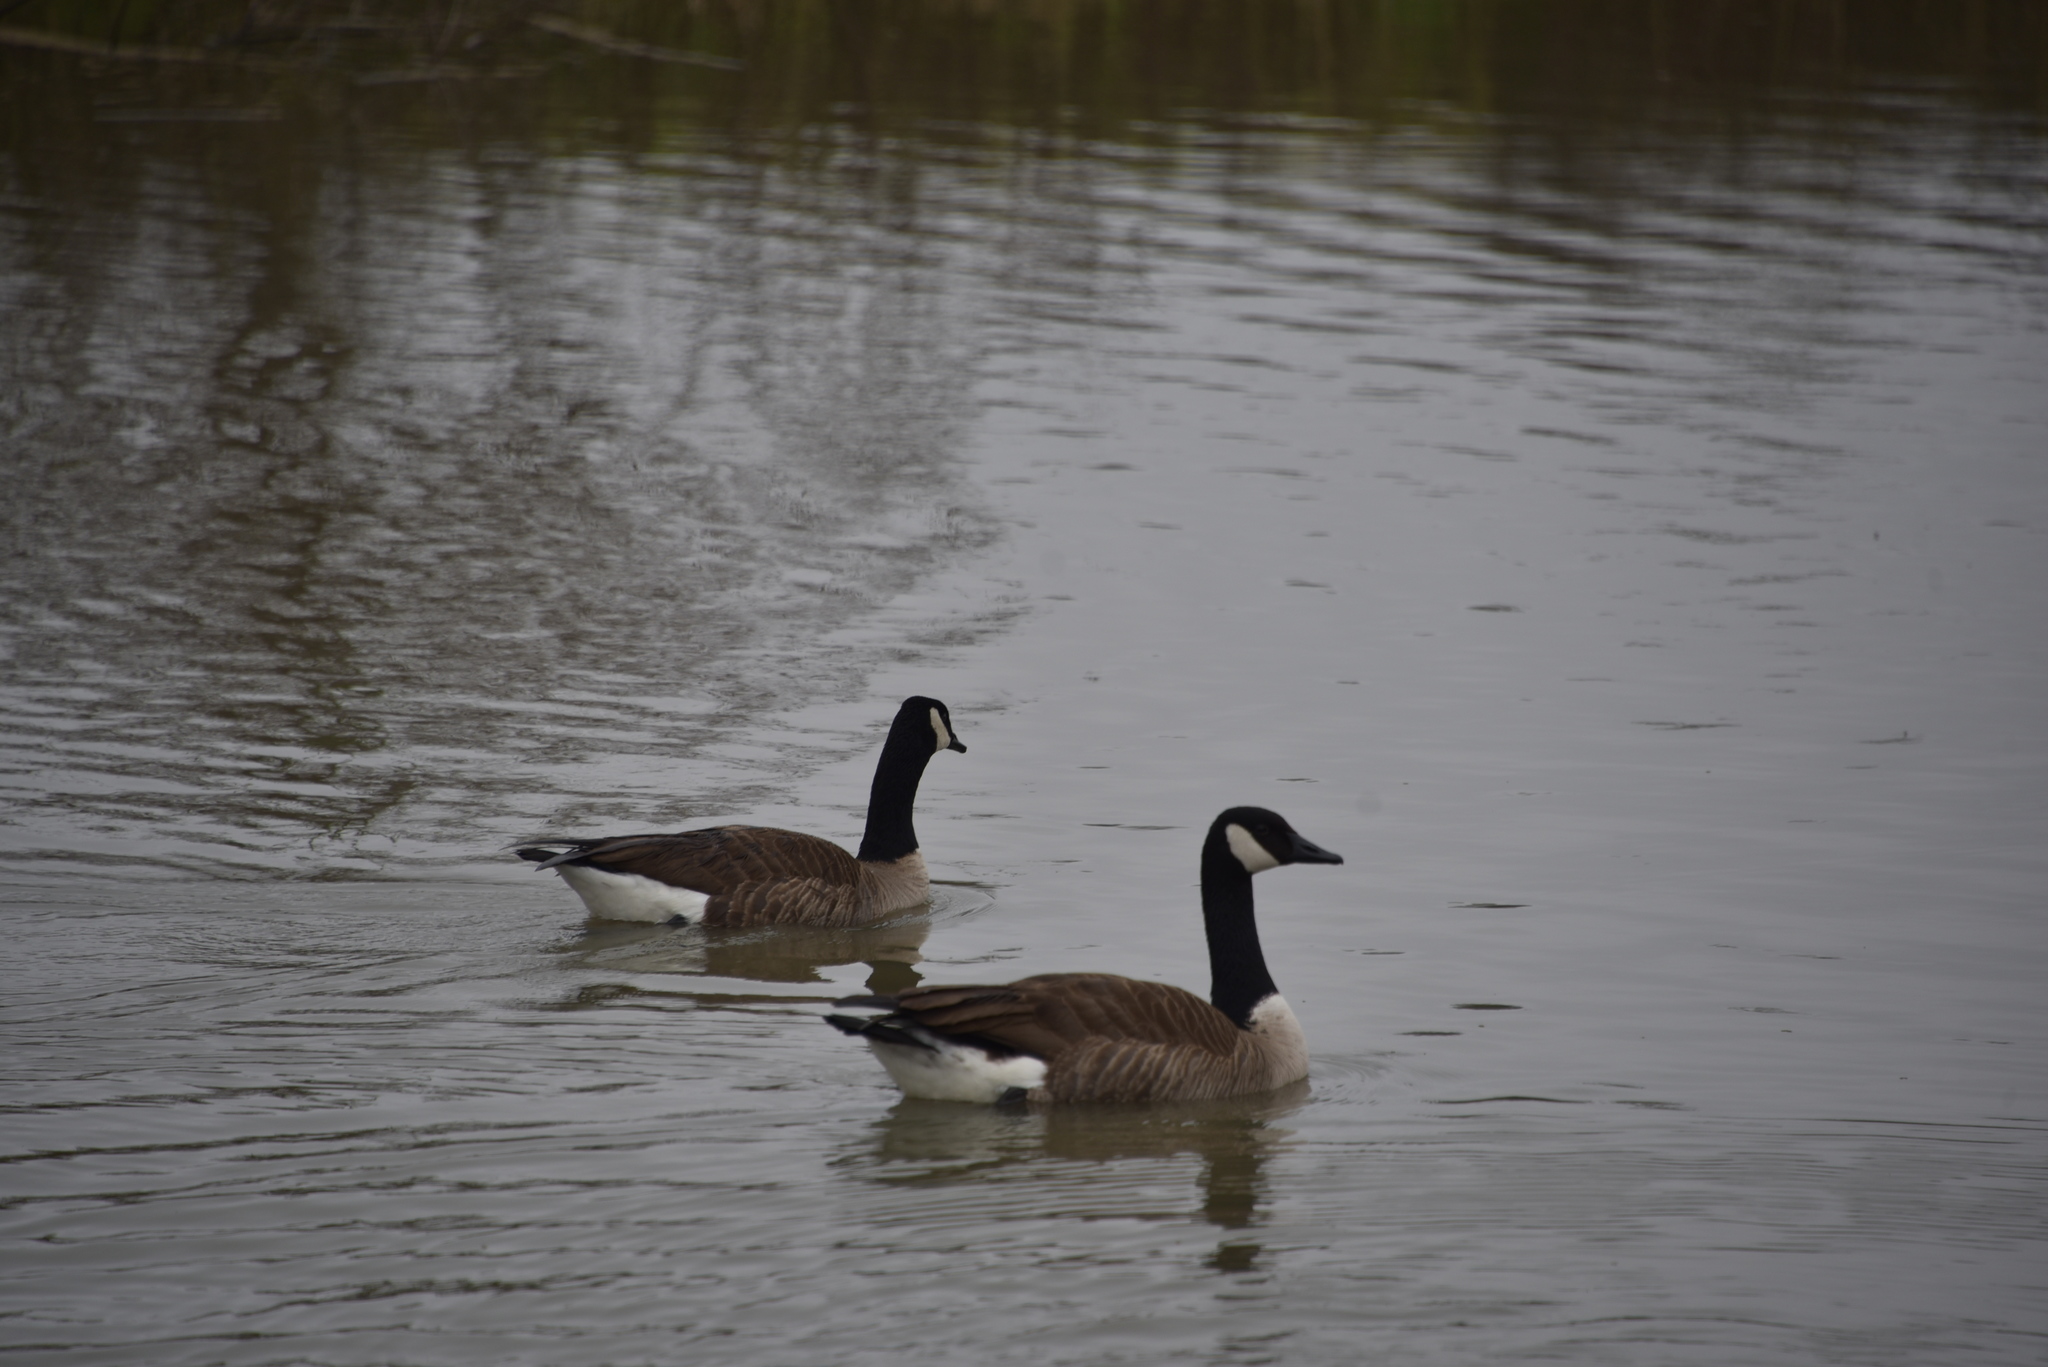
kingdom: Animalia
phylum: Chordata
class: Aves
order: Anseriformes
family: Anatidae
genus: Branta
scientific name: Branta canadensis
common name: Canada goose
